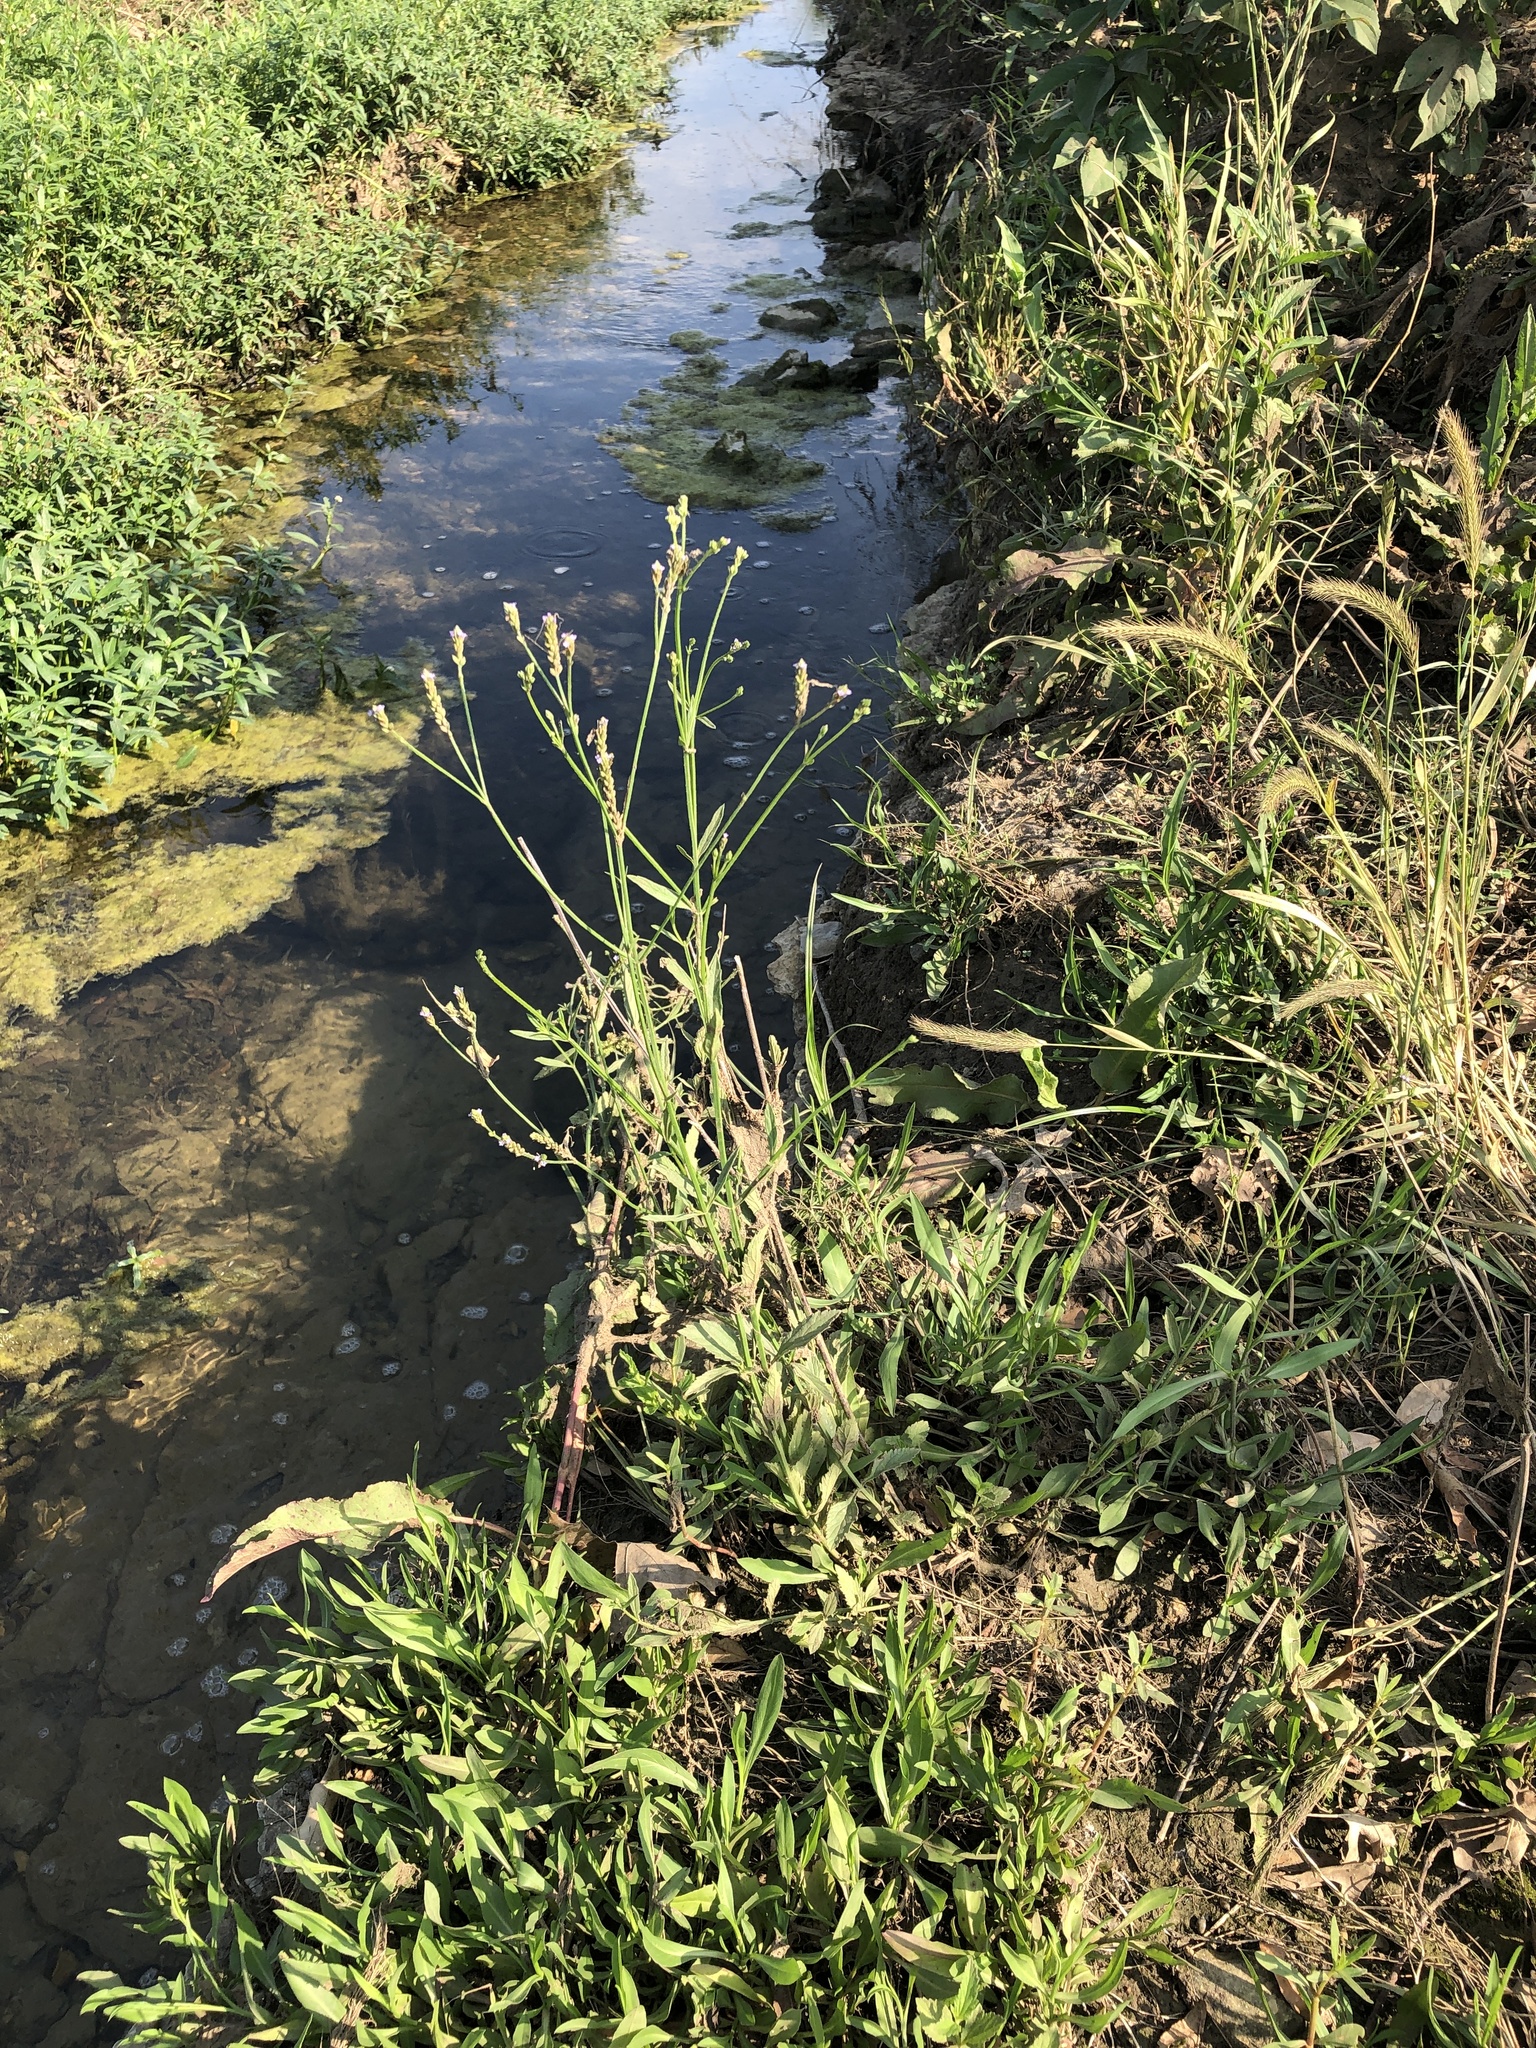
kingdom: Plantae
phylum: Tracheophyta
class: Magnoliopsida
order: Lamiales
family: Verbenaceae
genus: Verbena
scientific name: Verbena brasiliensis
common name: Brazilian vervain
